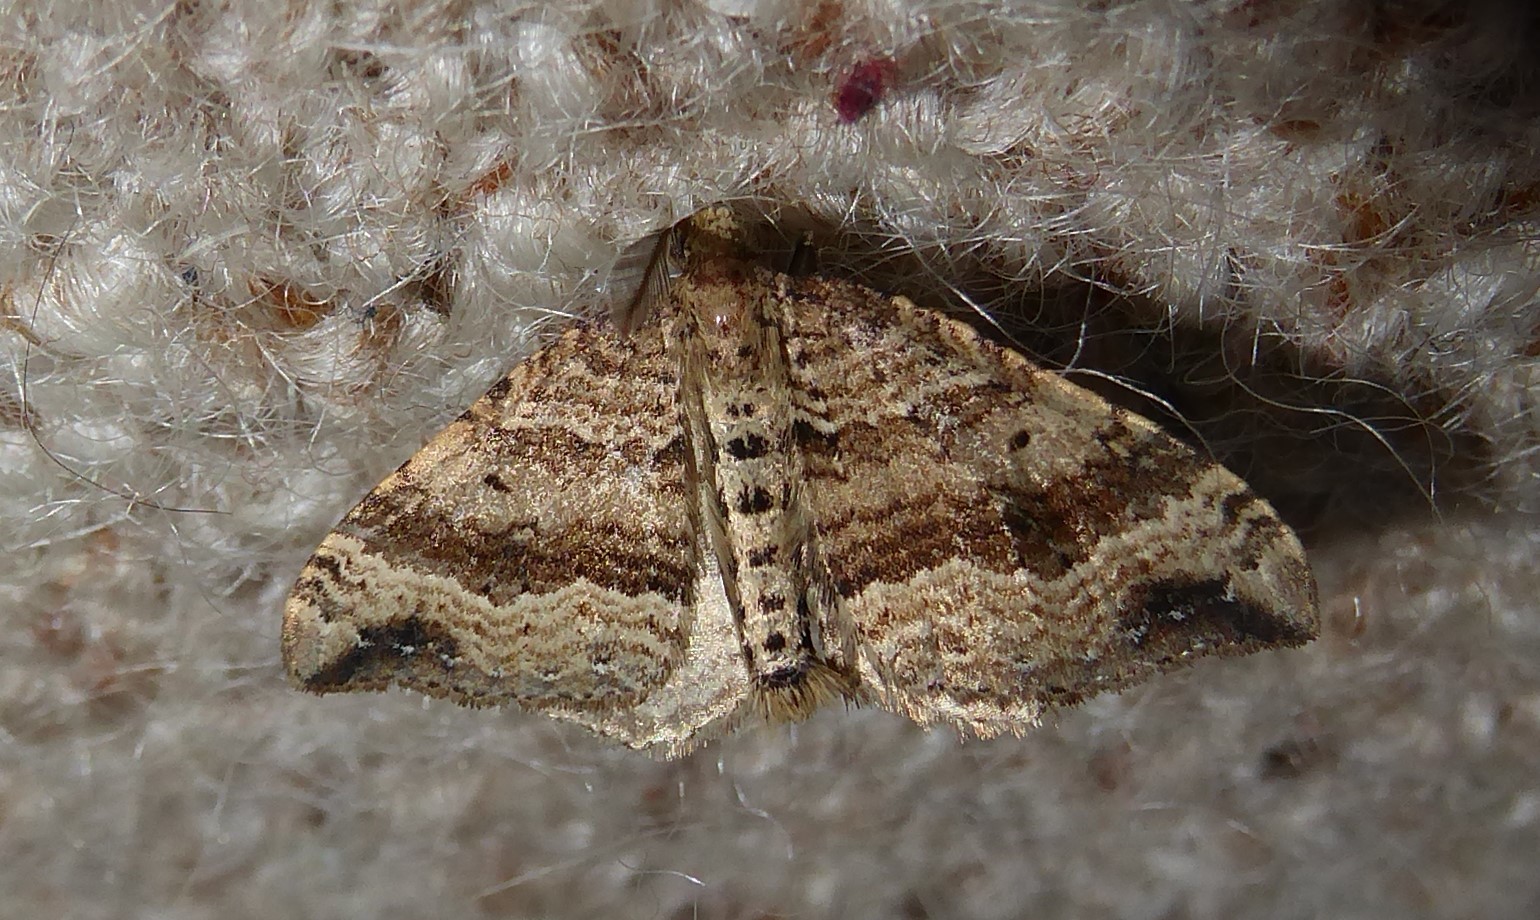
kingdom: Animalia
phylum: Arthropoda
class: Insecta
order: Lepidoptera
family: Geometridae
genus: Homodotis
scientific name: Homodotis falcata
